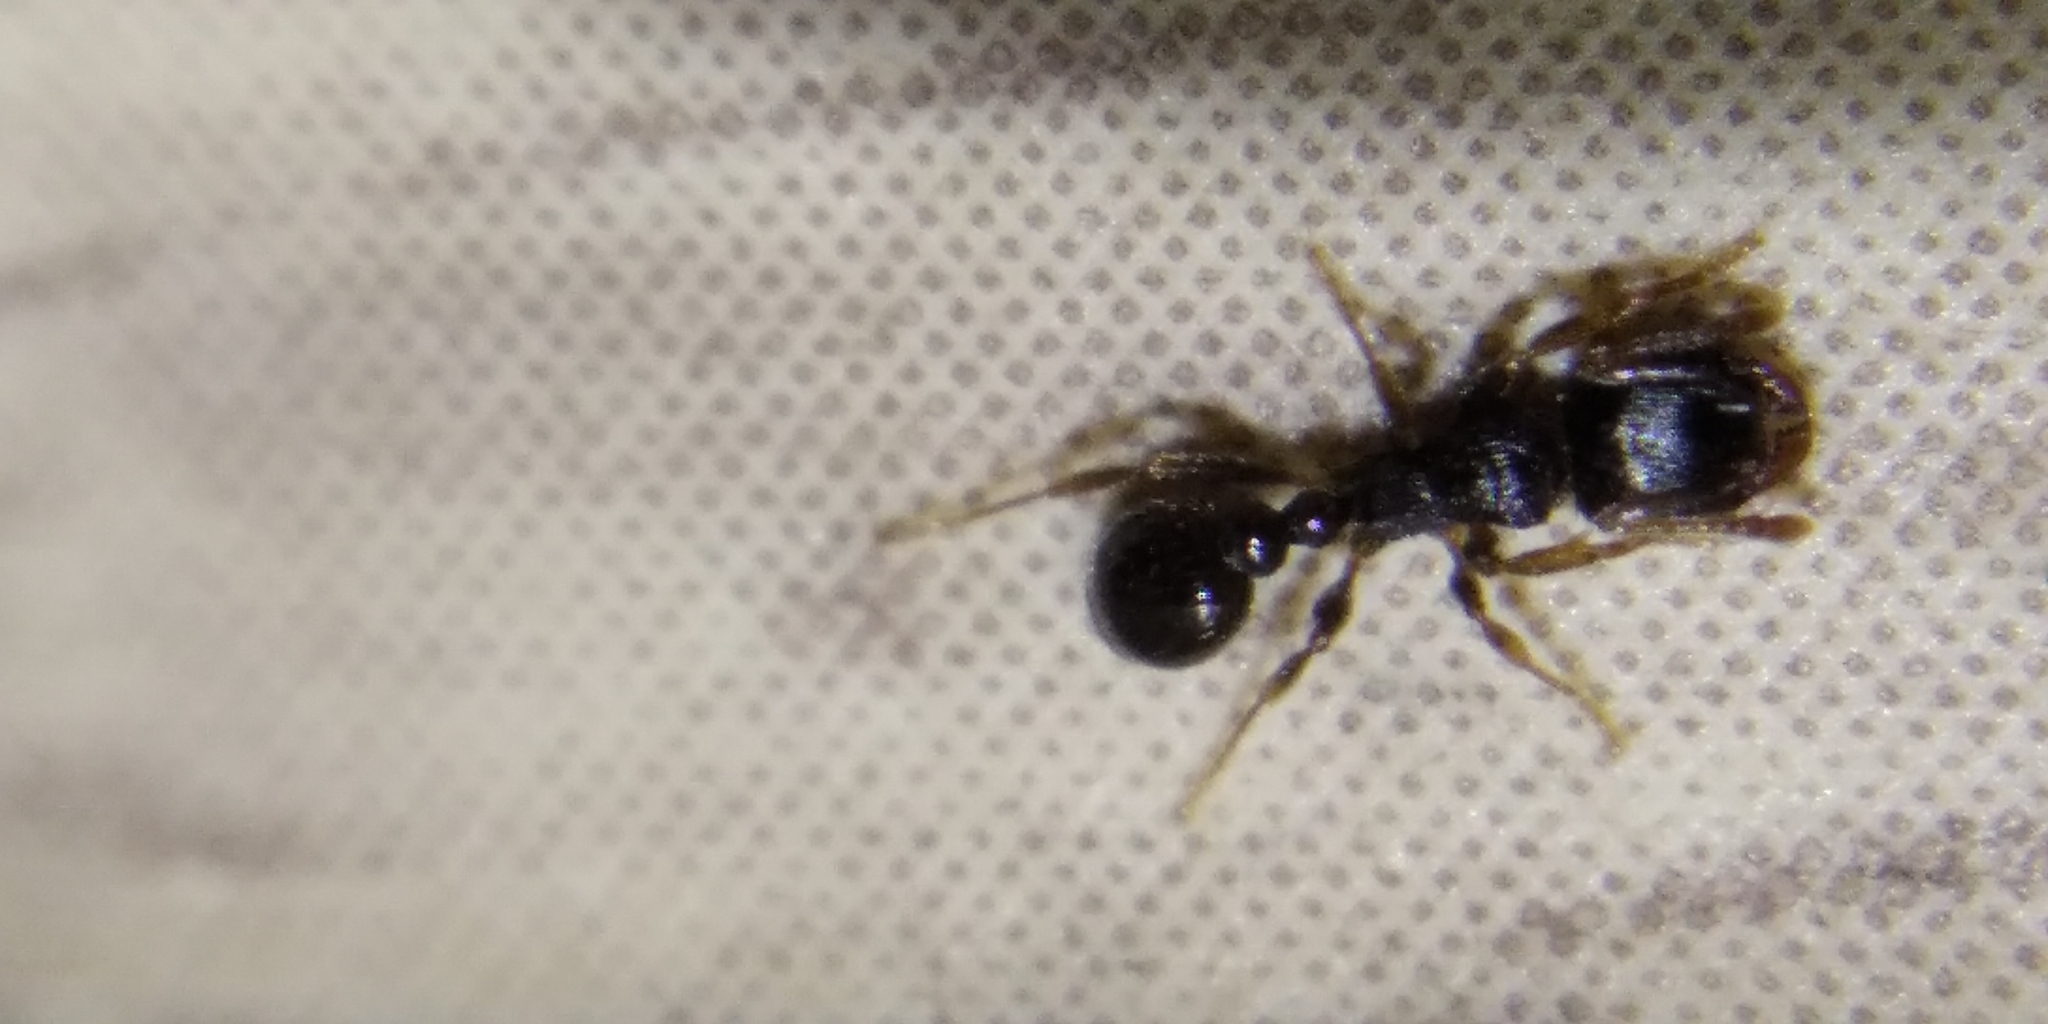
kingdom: Animalia
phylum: Arthropoda
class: Insecta
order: Hymenoptera
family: Formicidae
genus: Tetramorium
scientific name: Tetramorium immigrans
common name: Pavement ant
